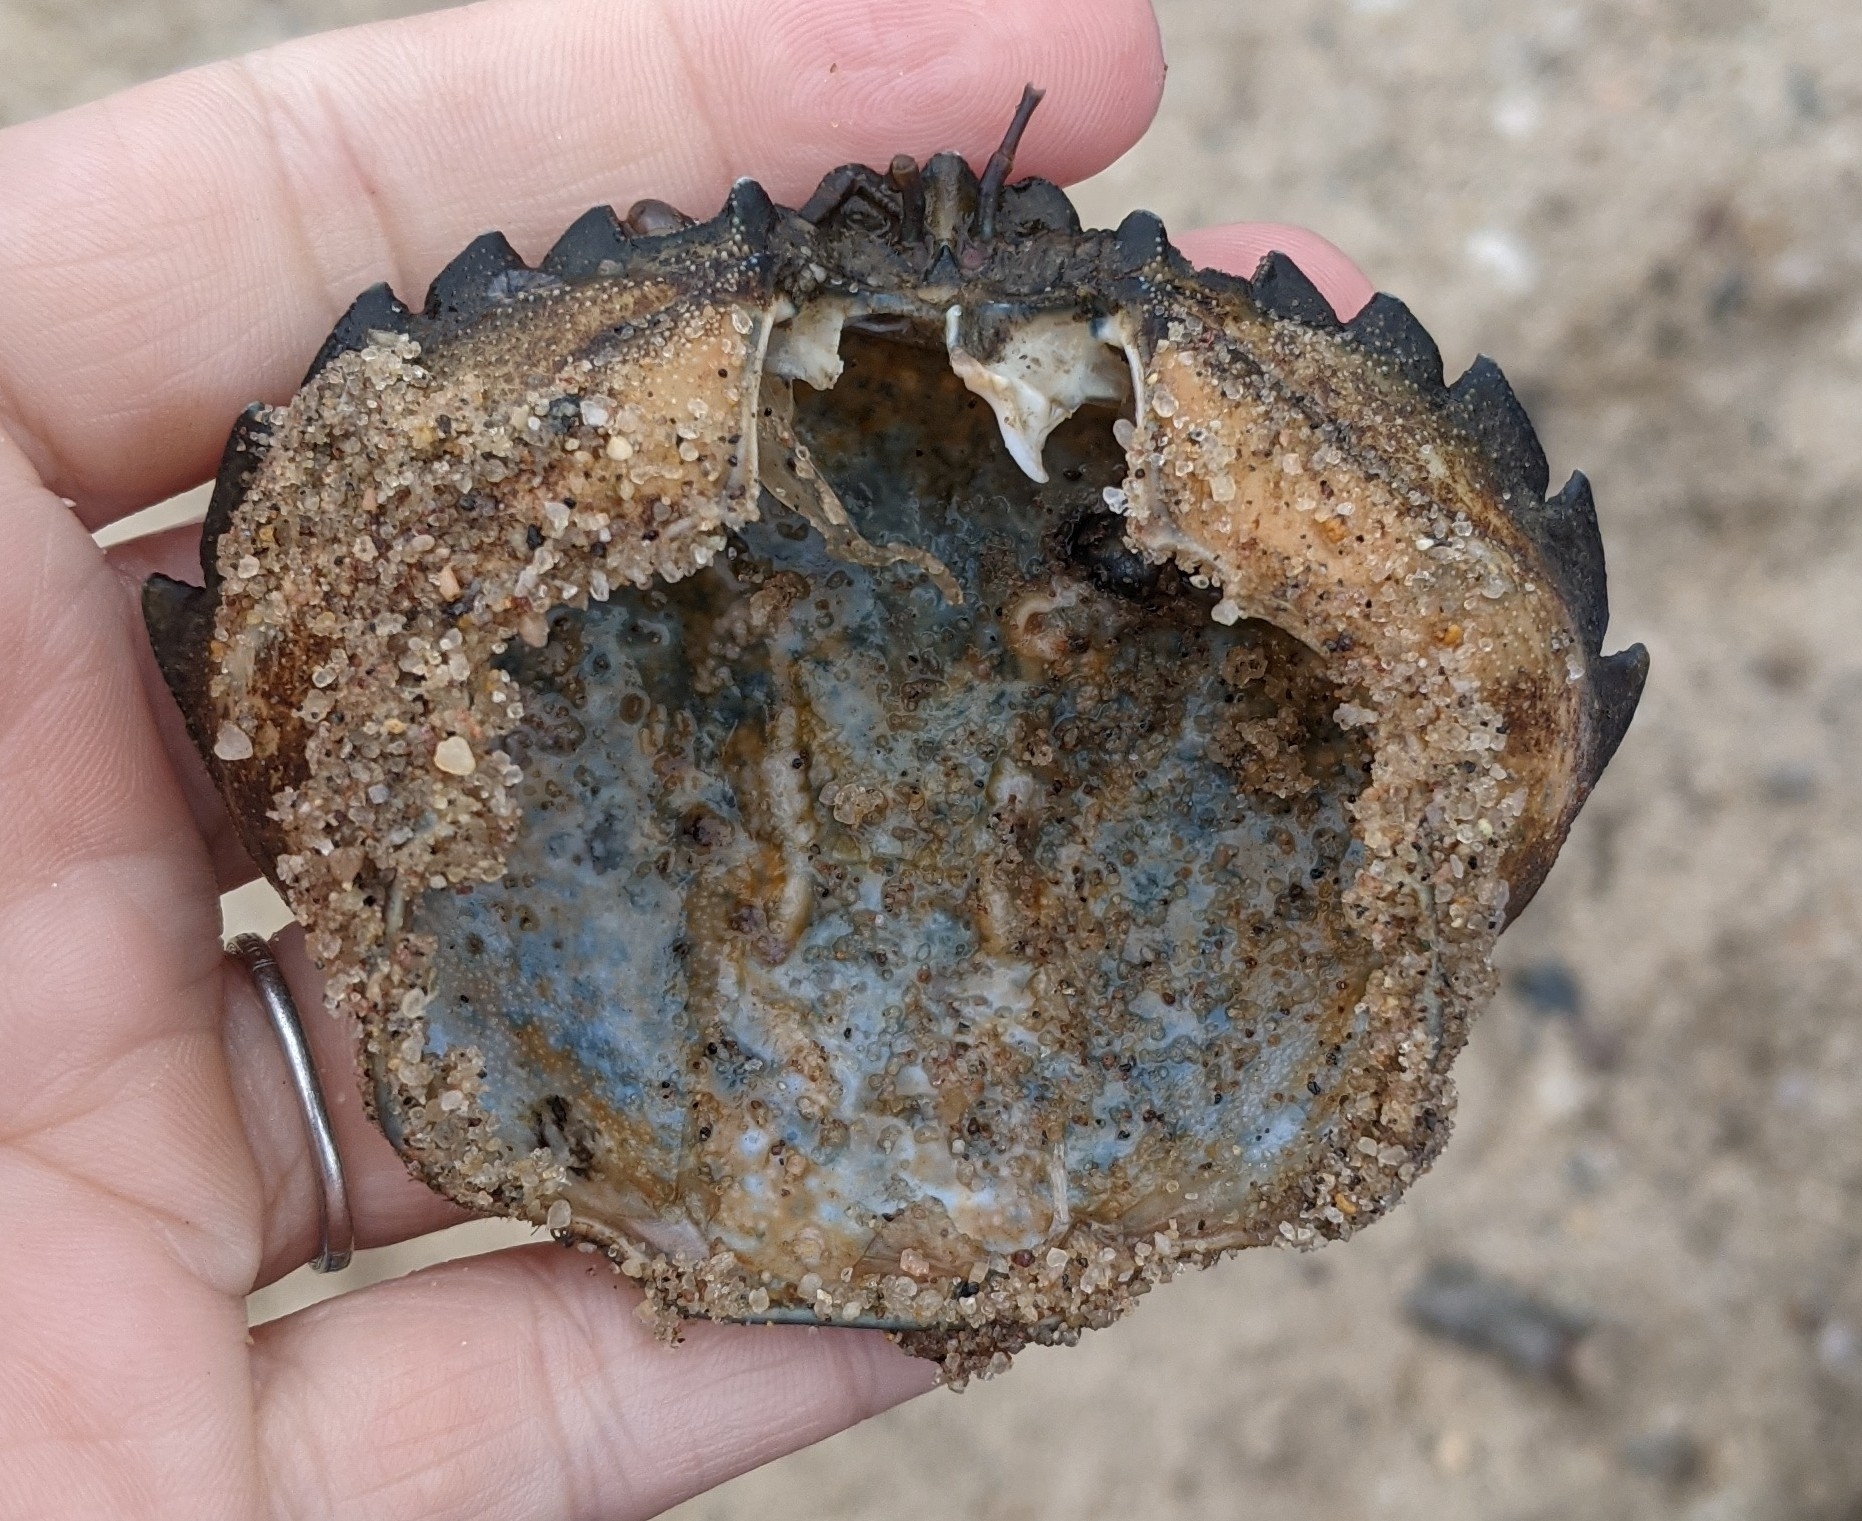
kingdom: Animalia
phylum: Arthropoda
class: Malacostraca
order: Decapoda
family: Carcinidae
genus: Carcinus
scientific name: Carcinus maenas
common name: European green crab
